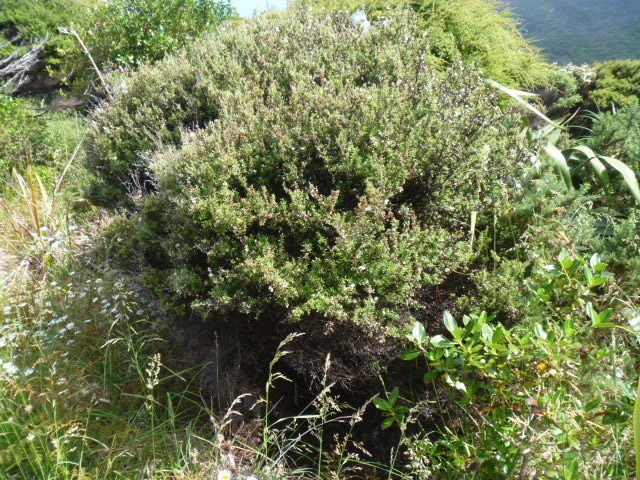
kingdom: Plantae
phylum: Tracheophyta
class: Magnoliopsida
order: Myrtales
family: Myrtaceae
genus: Leptospermum
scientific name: Leptospermum scoparium
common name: Broom tea-tree
